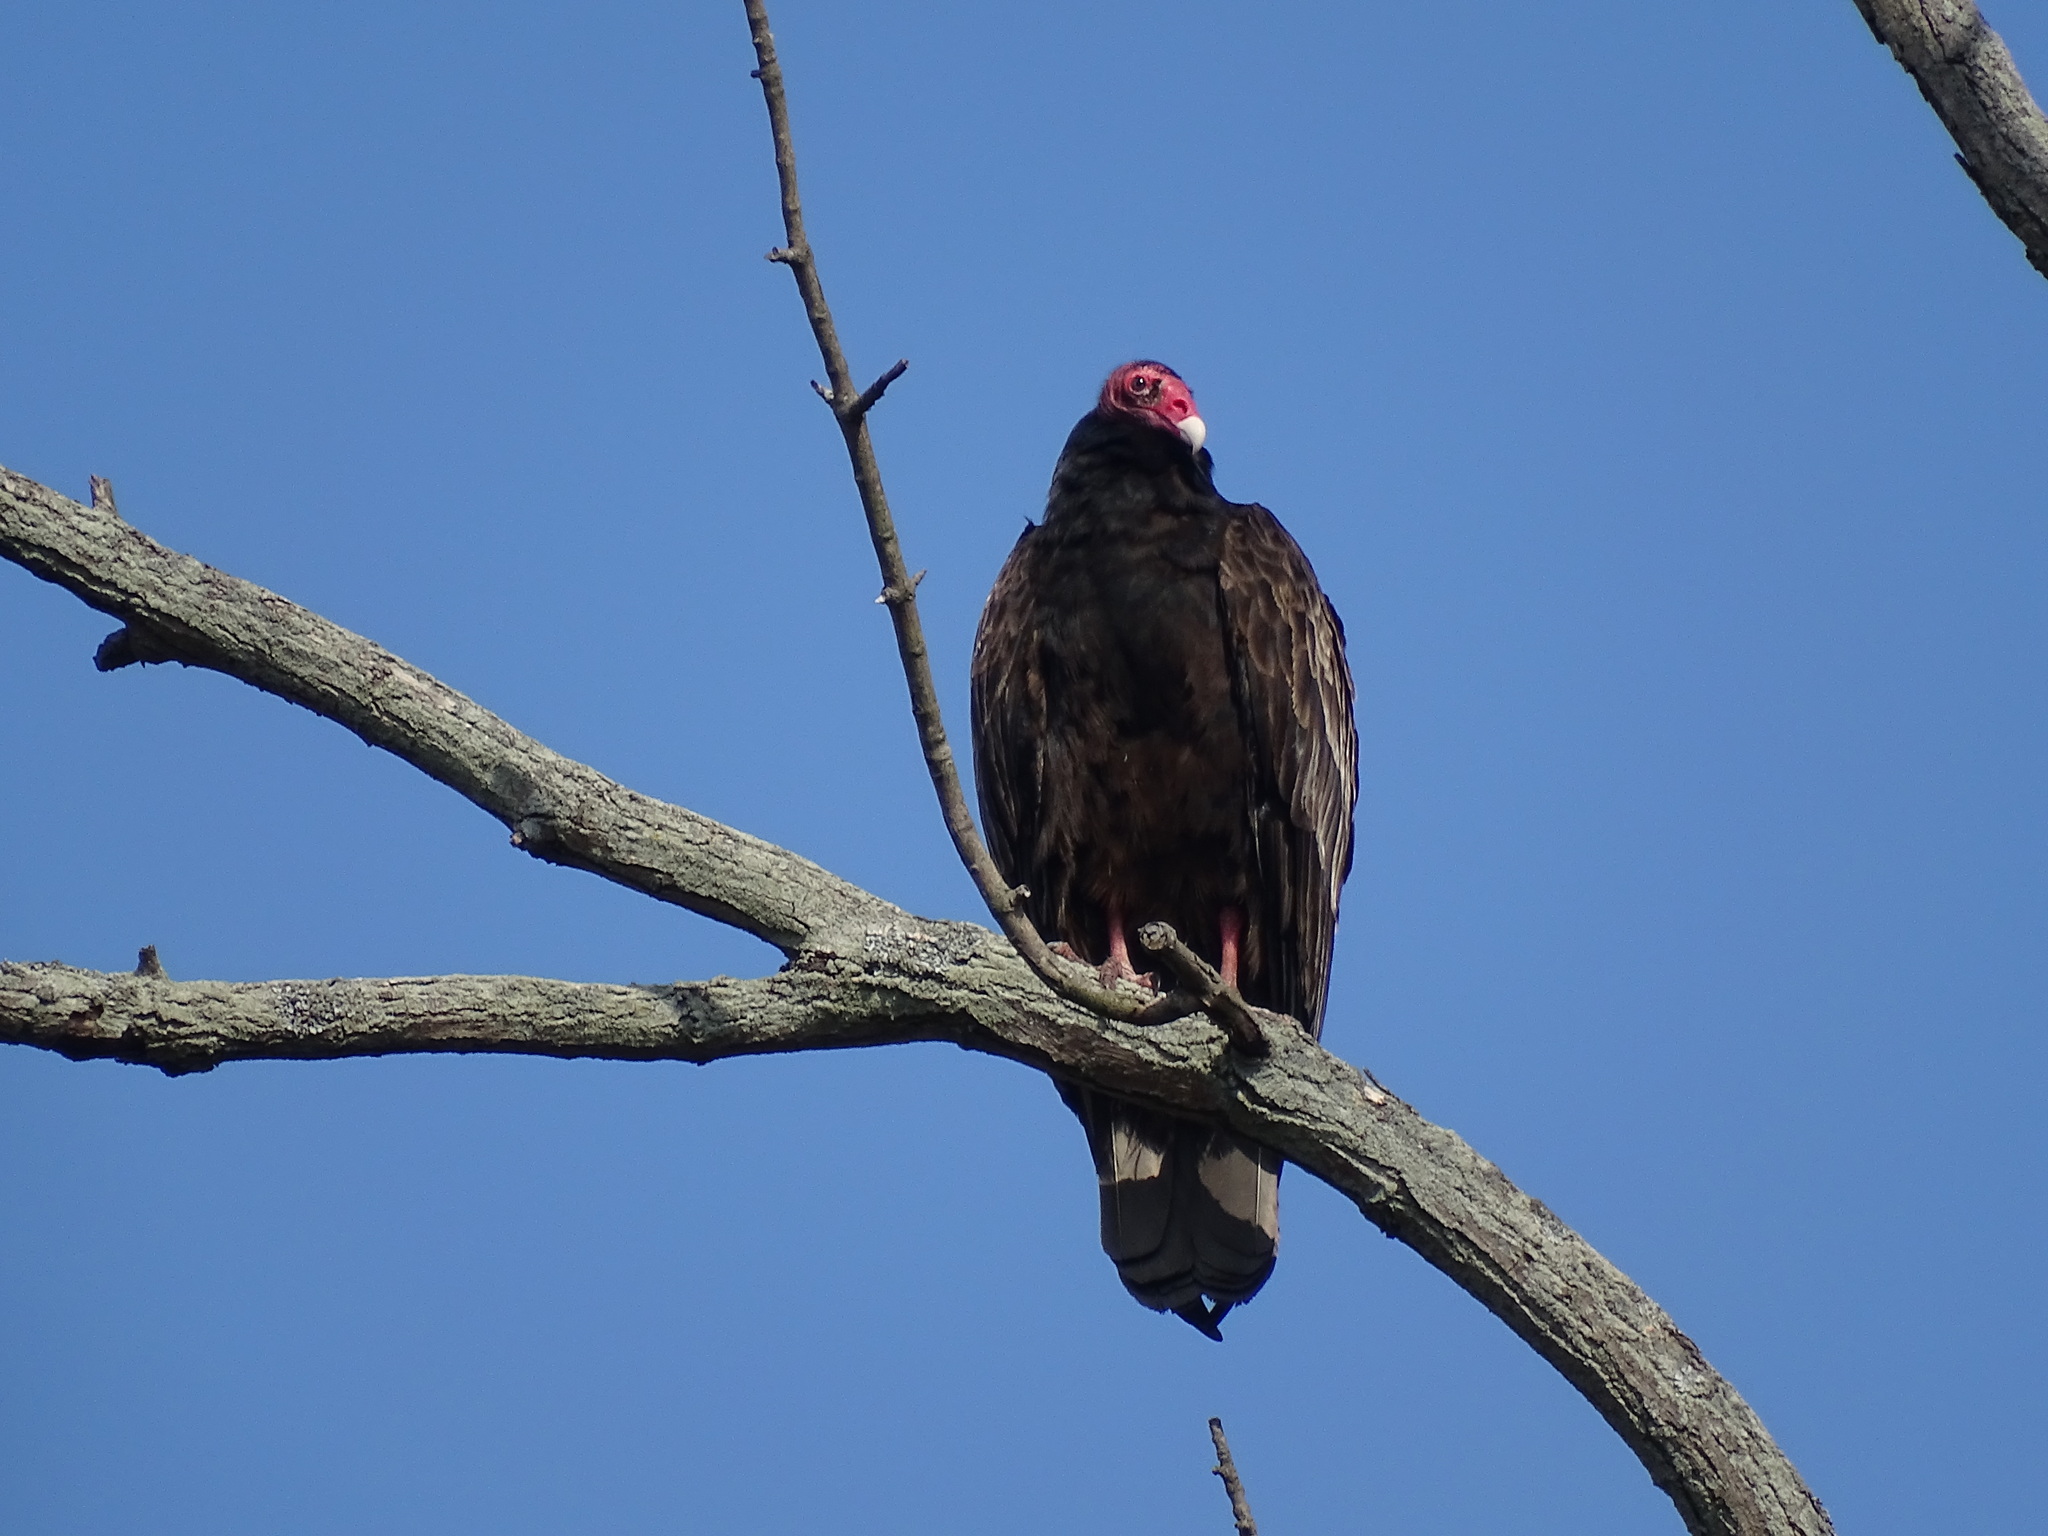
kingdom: Animalia
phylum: Chordata
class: Aves
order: Accipitriformes
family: Cathartidae
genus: Cathartes
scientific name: Cathartes aura
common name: Turkey vulture
